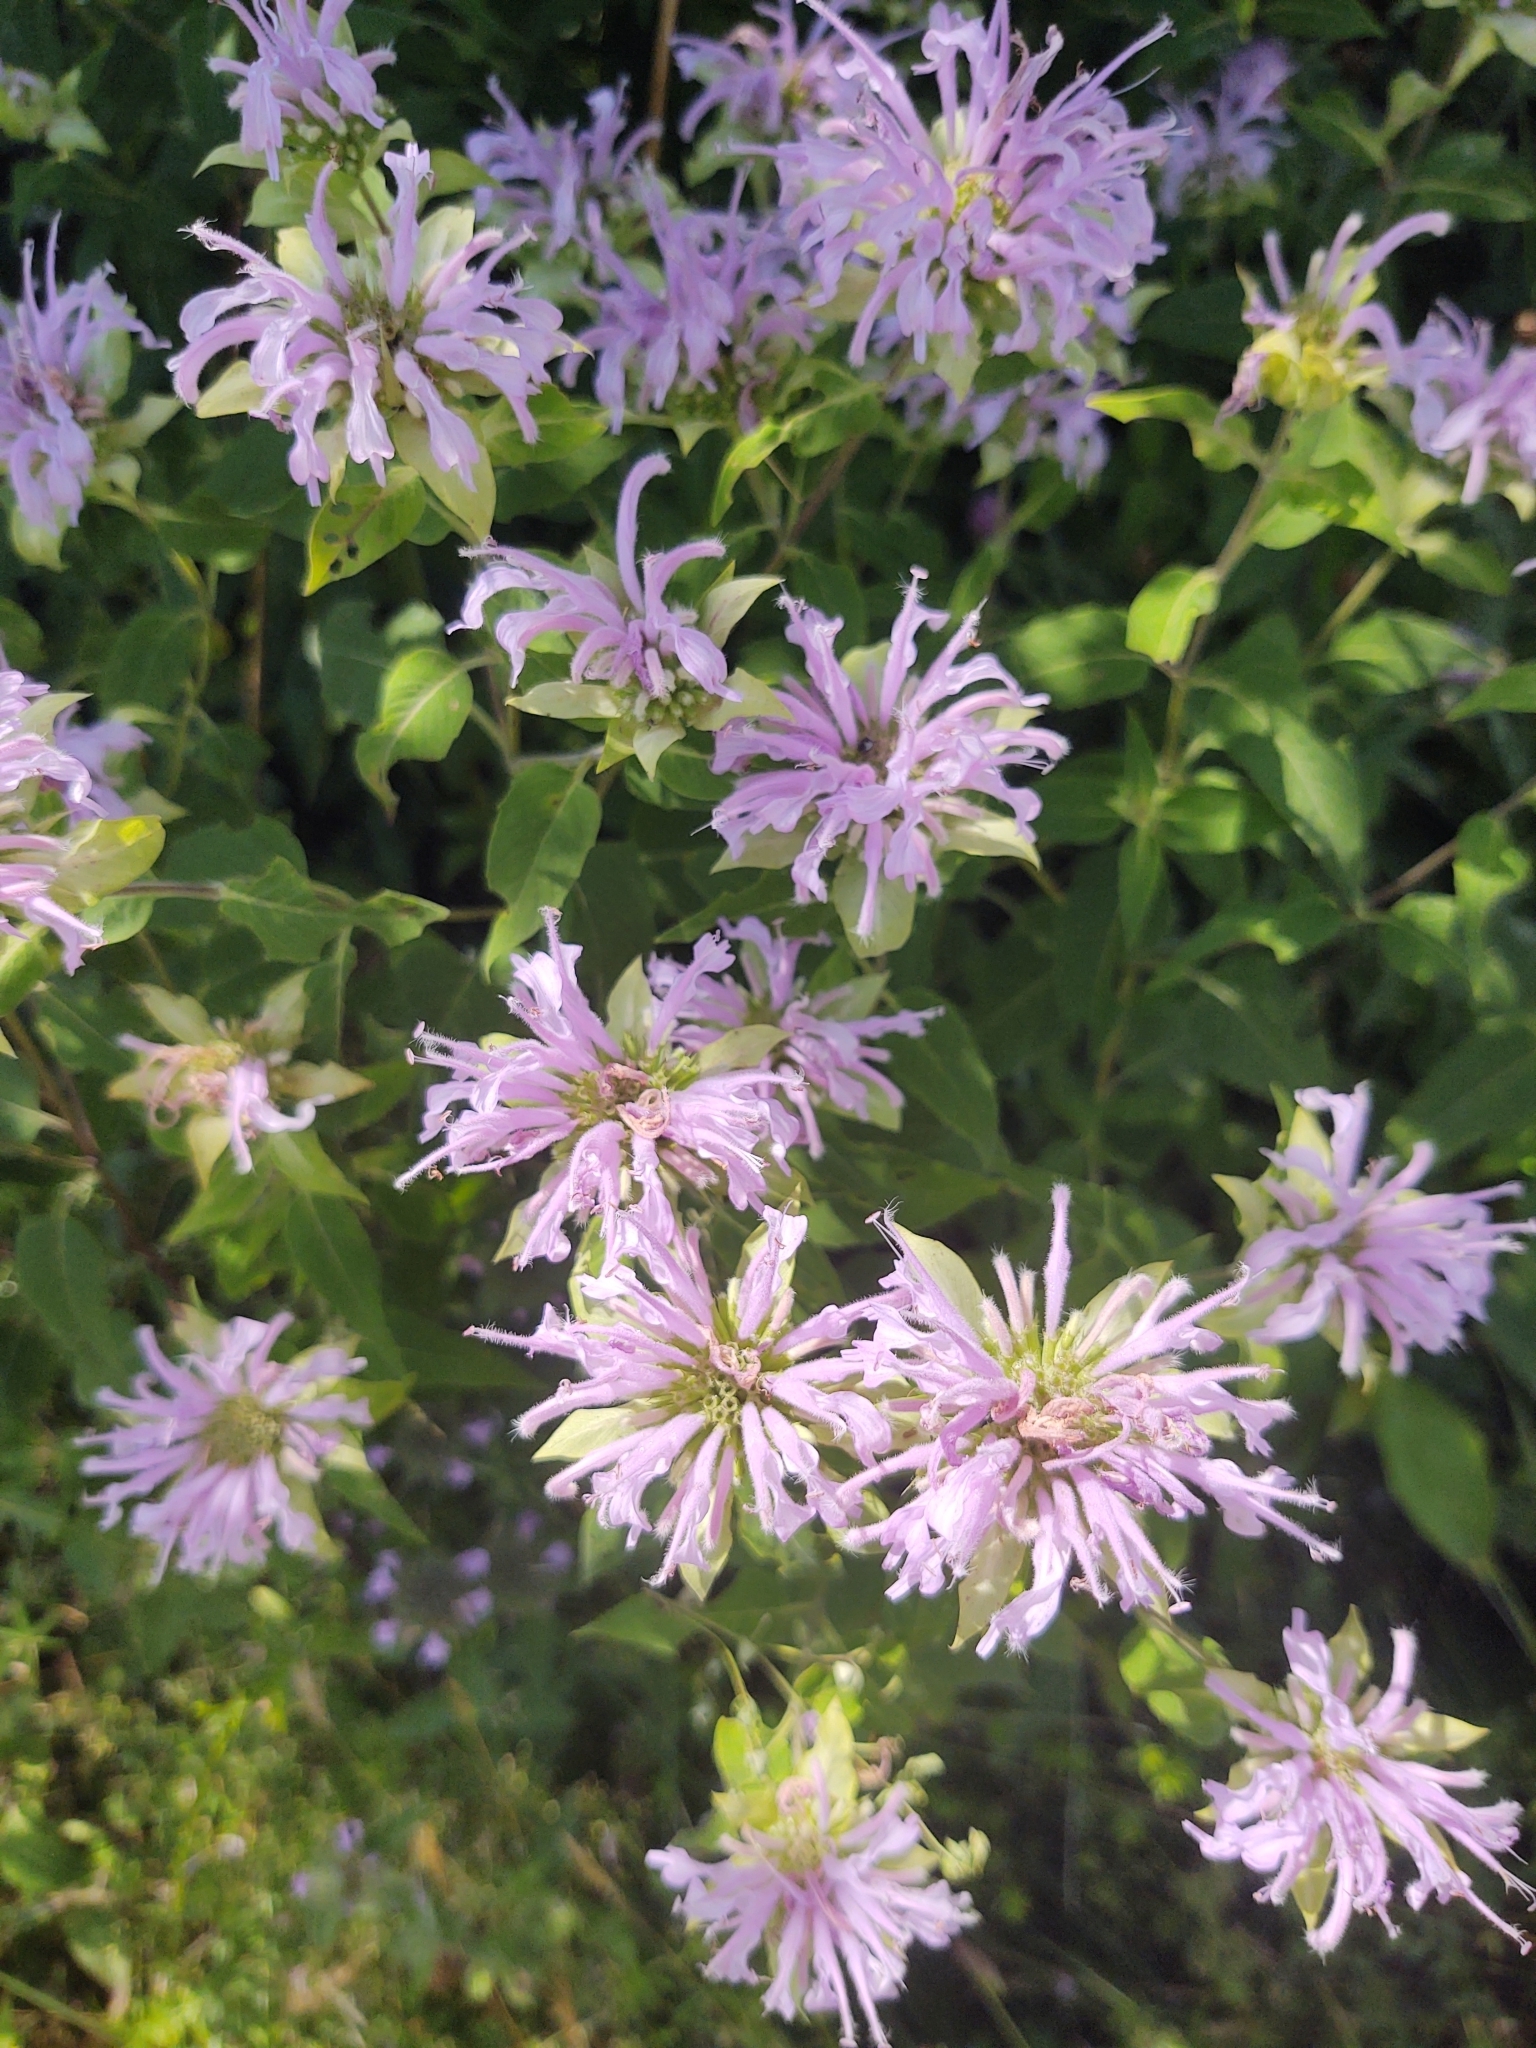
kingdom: Plantae
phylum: Tracheophyta
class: Magnoliopsida
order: Lamiales
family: Lamiaceae
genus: Monarda
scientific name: Monarda fistulosa
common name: Purple beebalm
